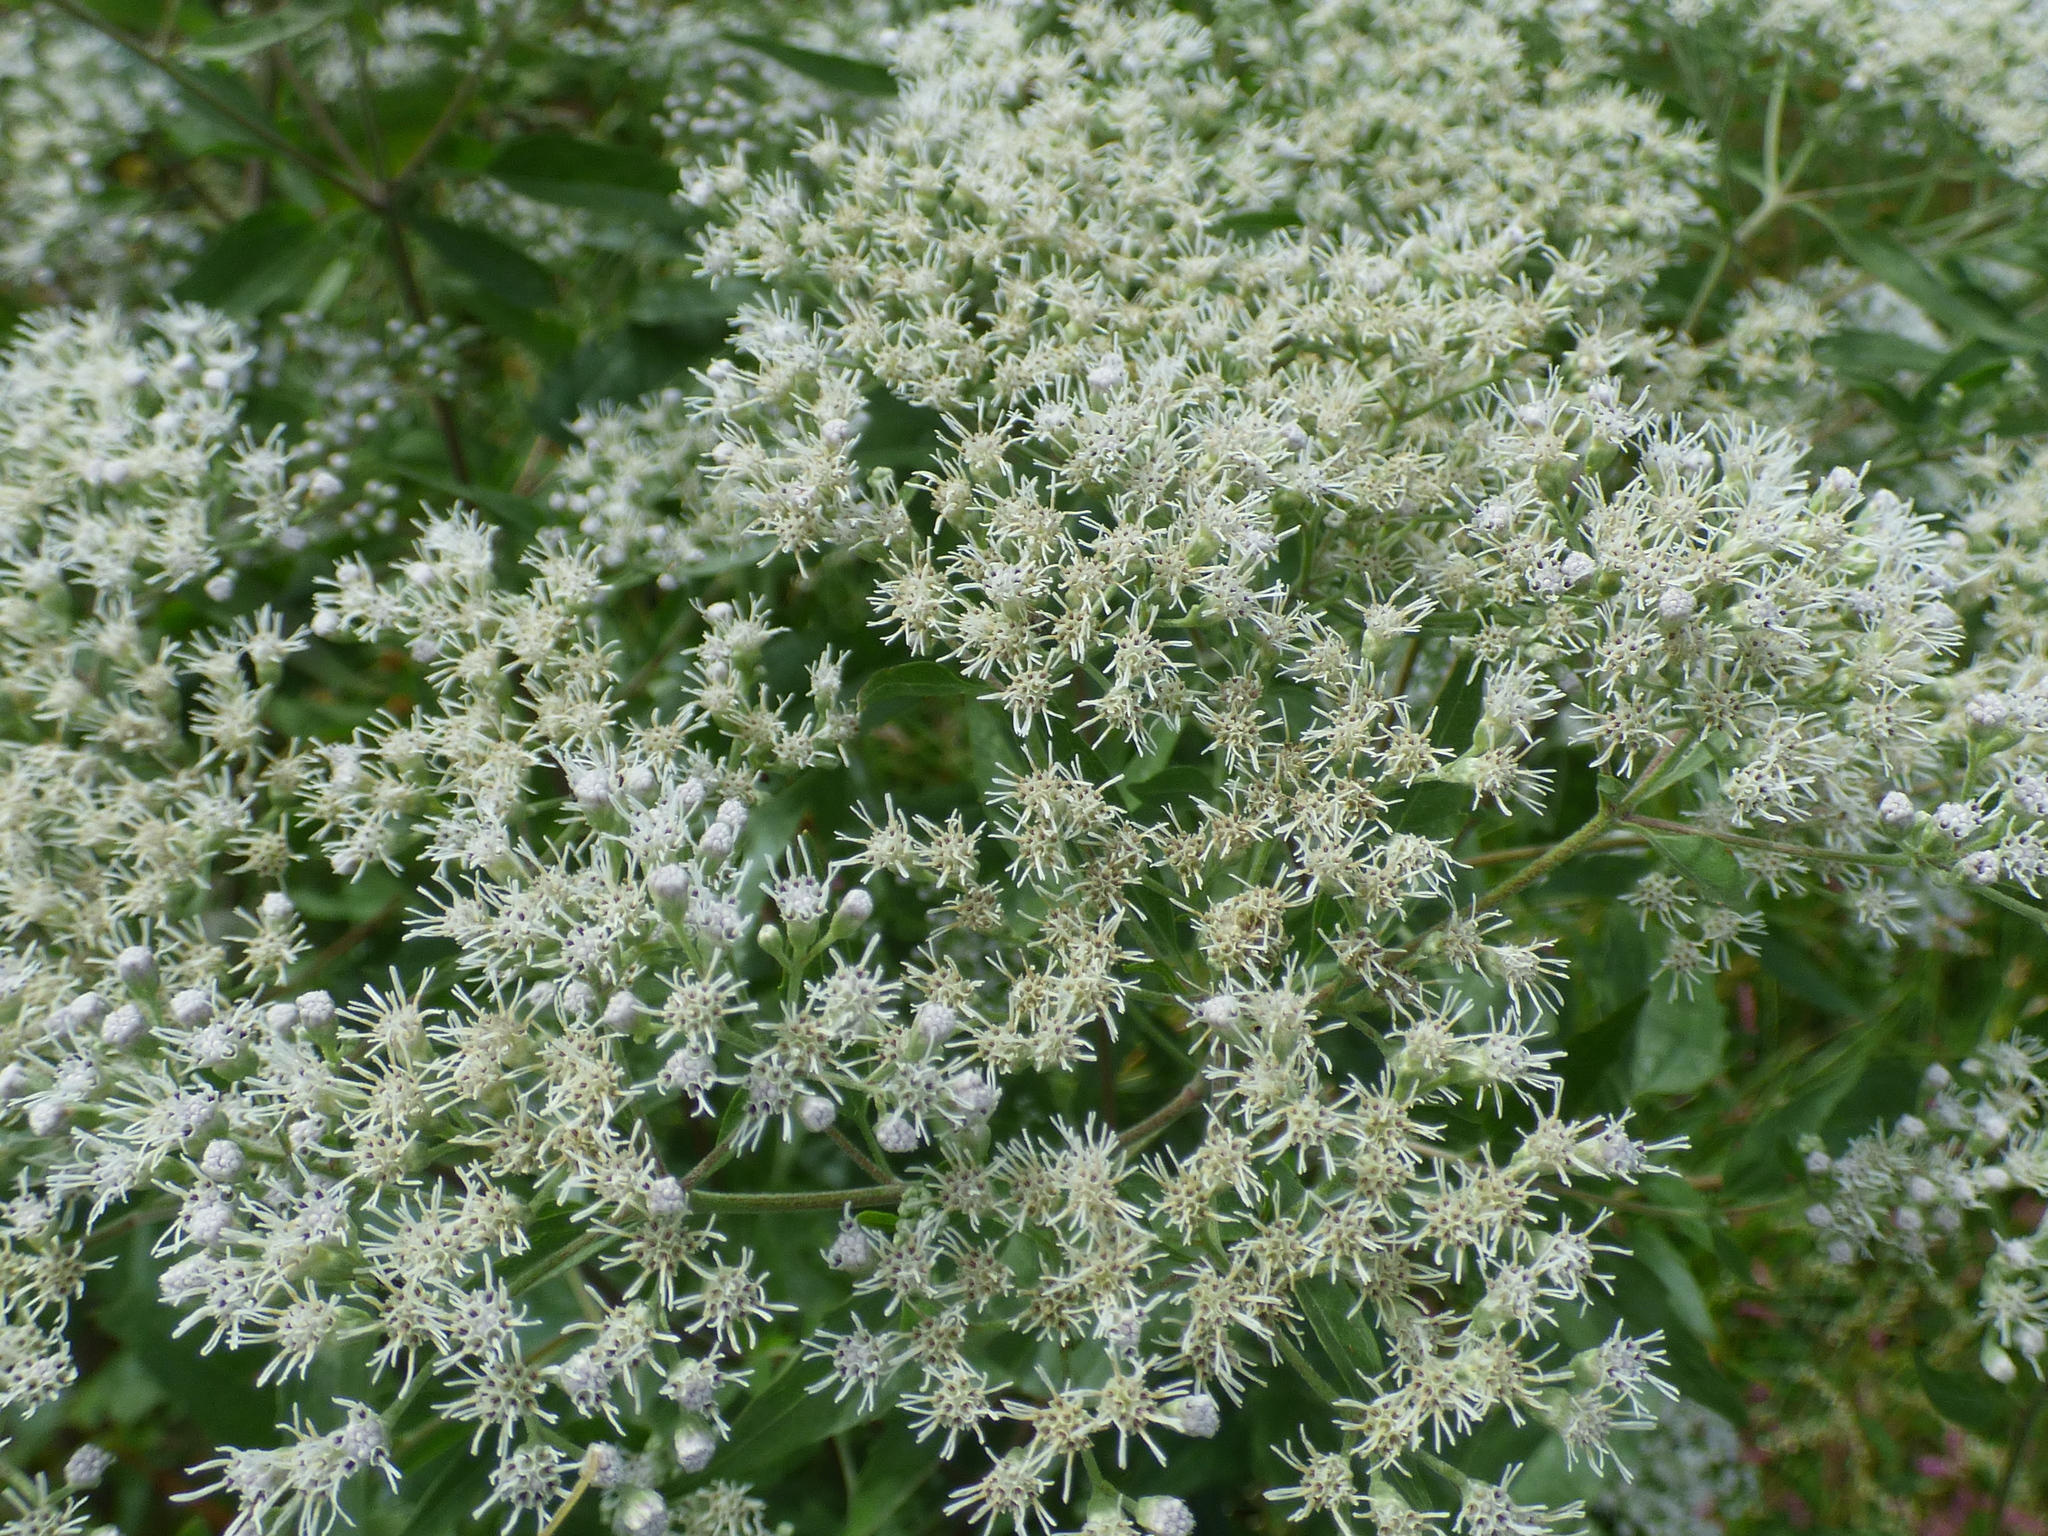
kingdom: Plantae
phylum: Tracheophyta
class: Magnoliopsida
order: Asterales
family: Asteraceae
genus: Eupatorium
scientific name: Eupatorium serotinum
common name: Late boneset
